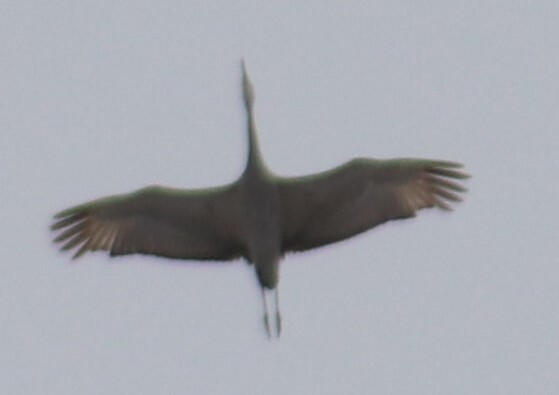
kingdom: Animalia
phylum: Chordata
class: Aves
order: Gruiformes
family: Gruidae
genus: Grus
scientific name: Grus canadensis
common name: Sandhill crane
